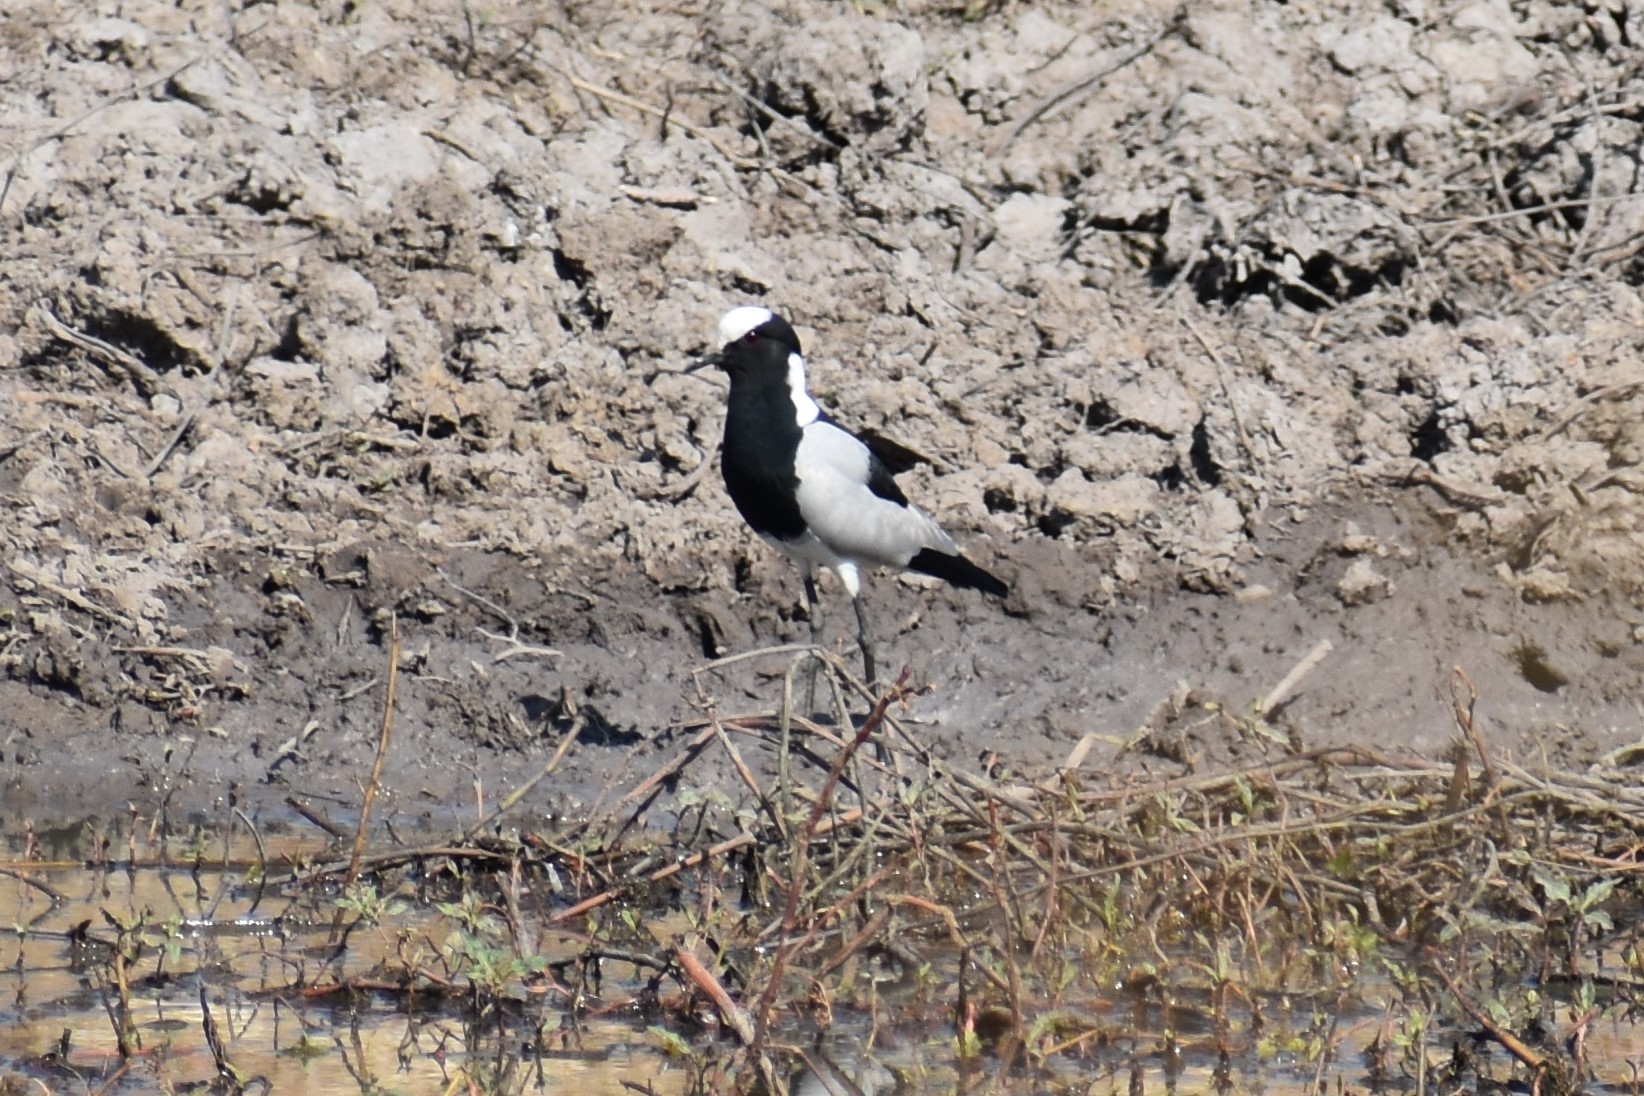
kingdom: Animalia
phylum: Chordata
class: Aves
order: Charadriiformes
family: Charadriidae
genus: Vanellus
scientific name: Vanellus armatus
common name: Blacksmith lapwing
